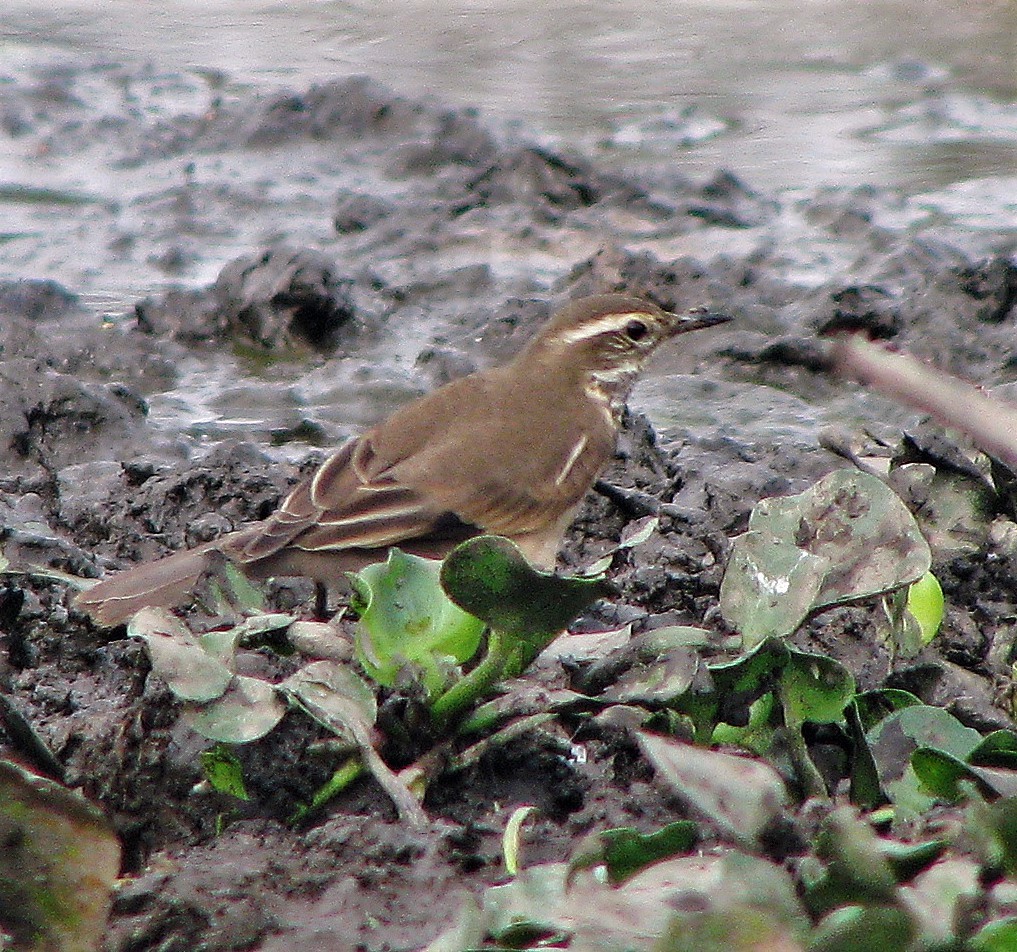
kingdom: Animalia
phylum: Chordata
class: Aves
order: Passeriformes
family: Furnariidae
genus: Cinclodes
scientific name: Cinclodes fuscus
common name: Buff-winged cinclodes
